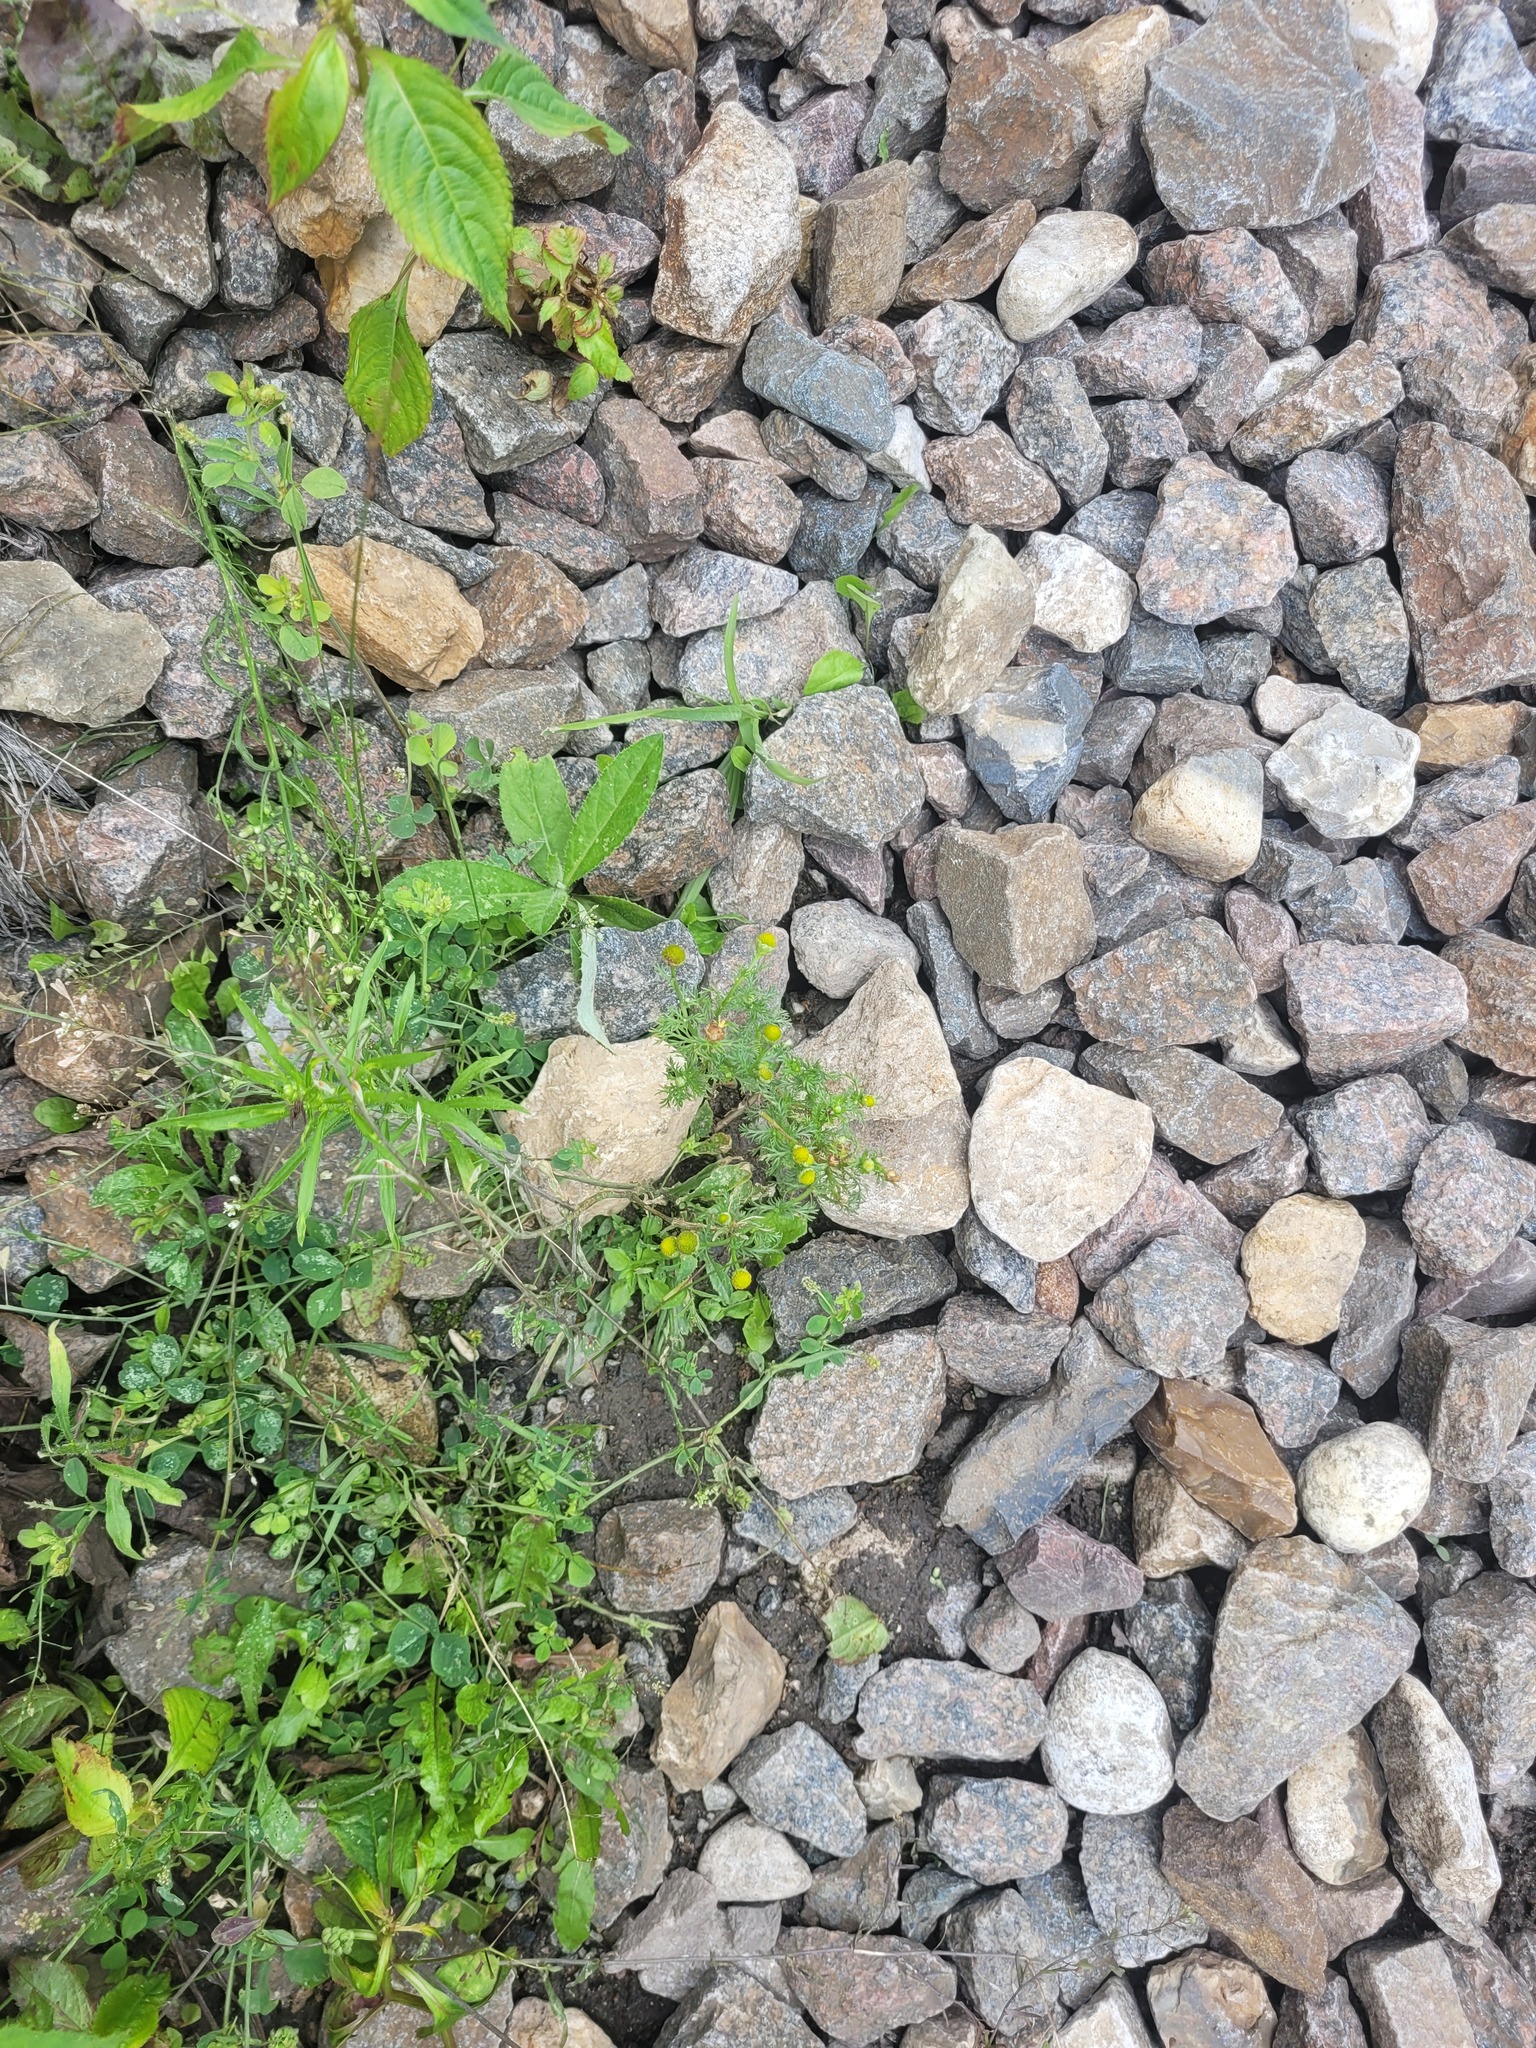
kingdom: Plantae
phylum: Tracheophyta
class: Magnoliopsida
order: Asterales
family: Asteraceae
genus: Matricaria
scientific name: Matricaria discoidea
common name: Disc mayweed
